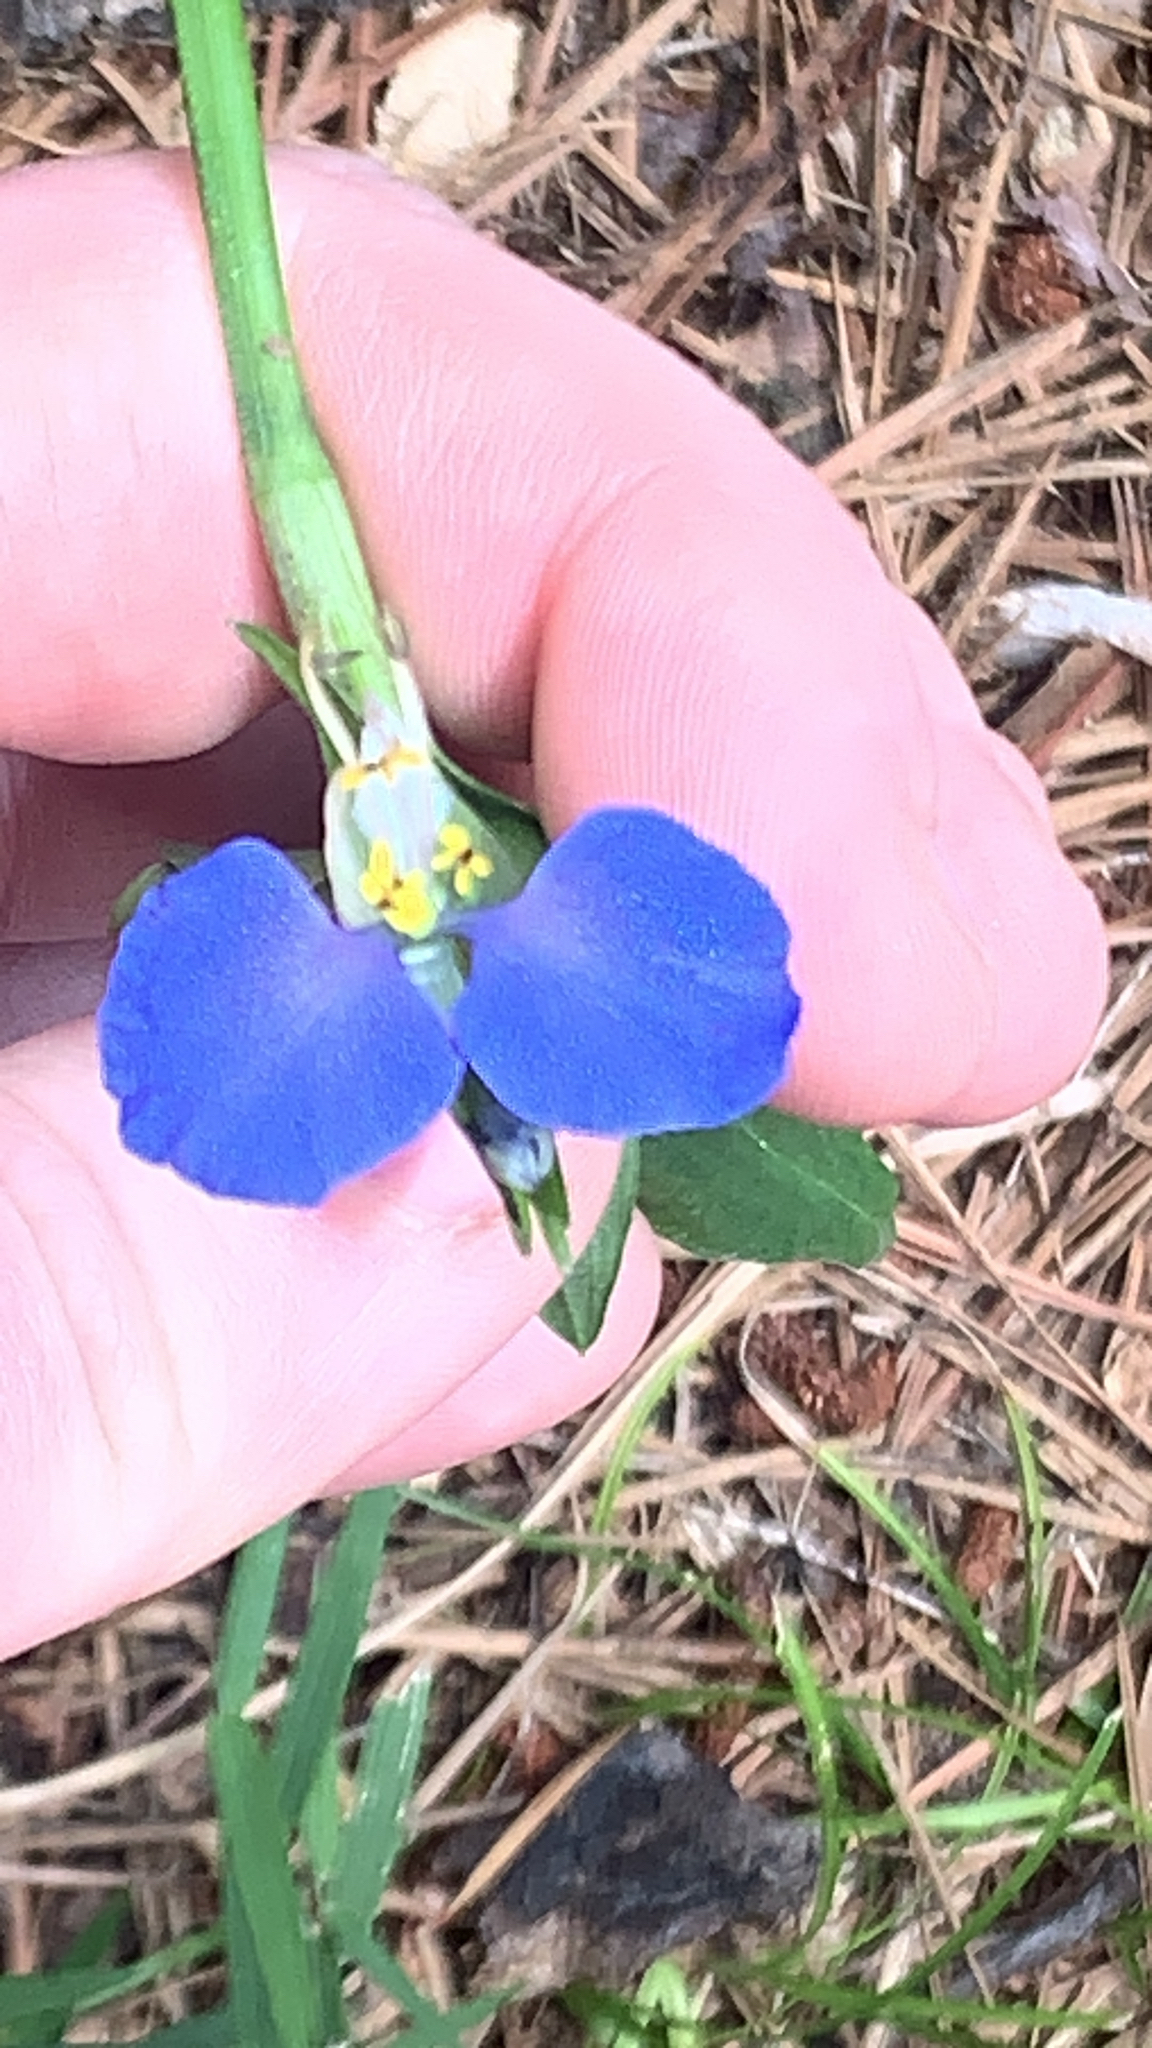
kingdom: Plantae
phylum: Tracheophyta
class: Liliopsida
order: Commelinales
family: Commelinaceae
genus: Commelina
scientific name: Commelina communis
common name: Asiatic dayflower
